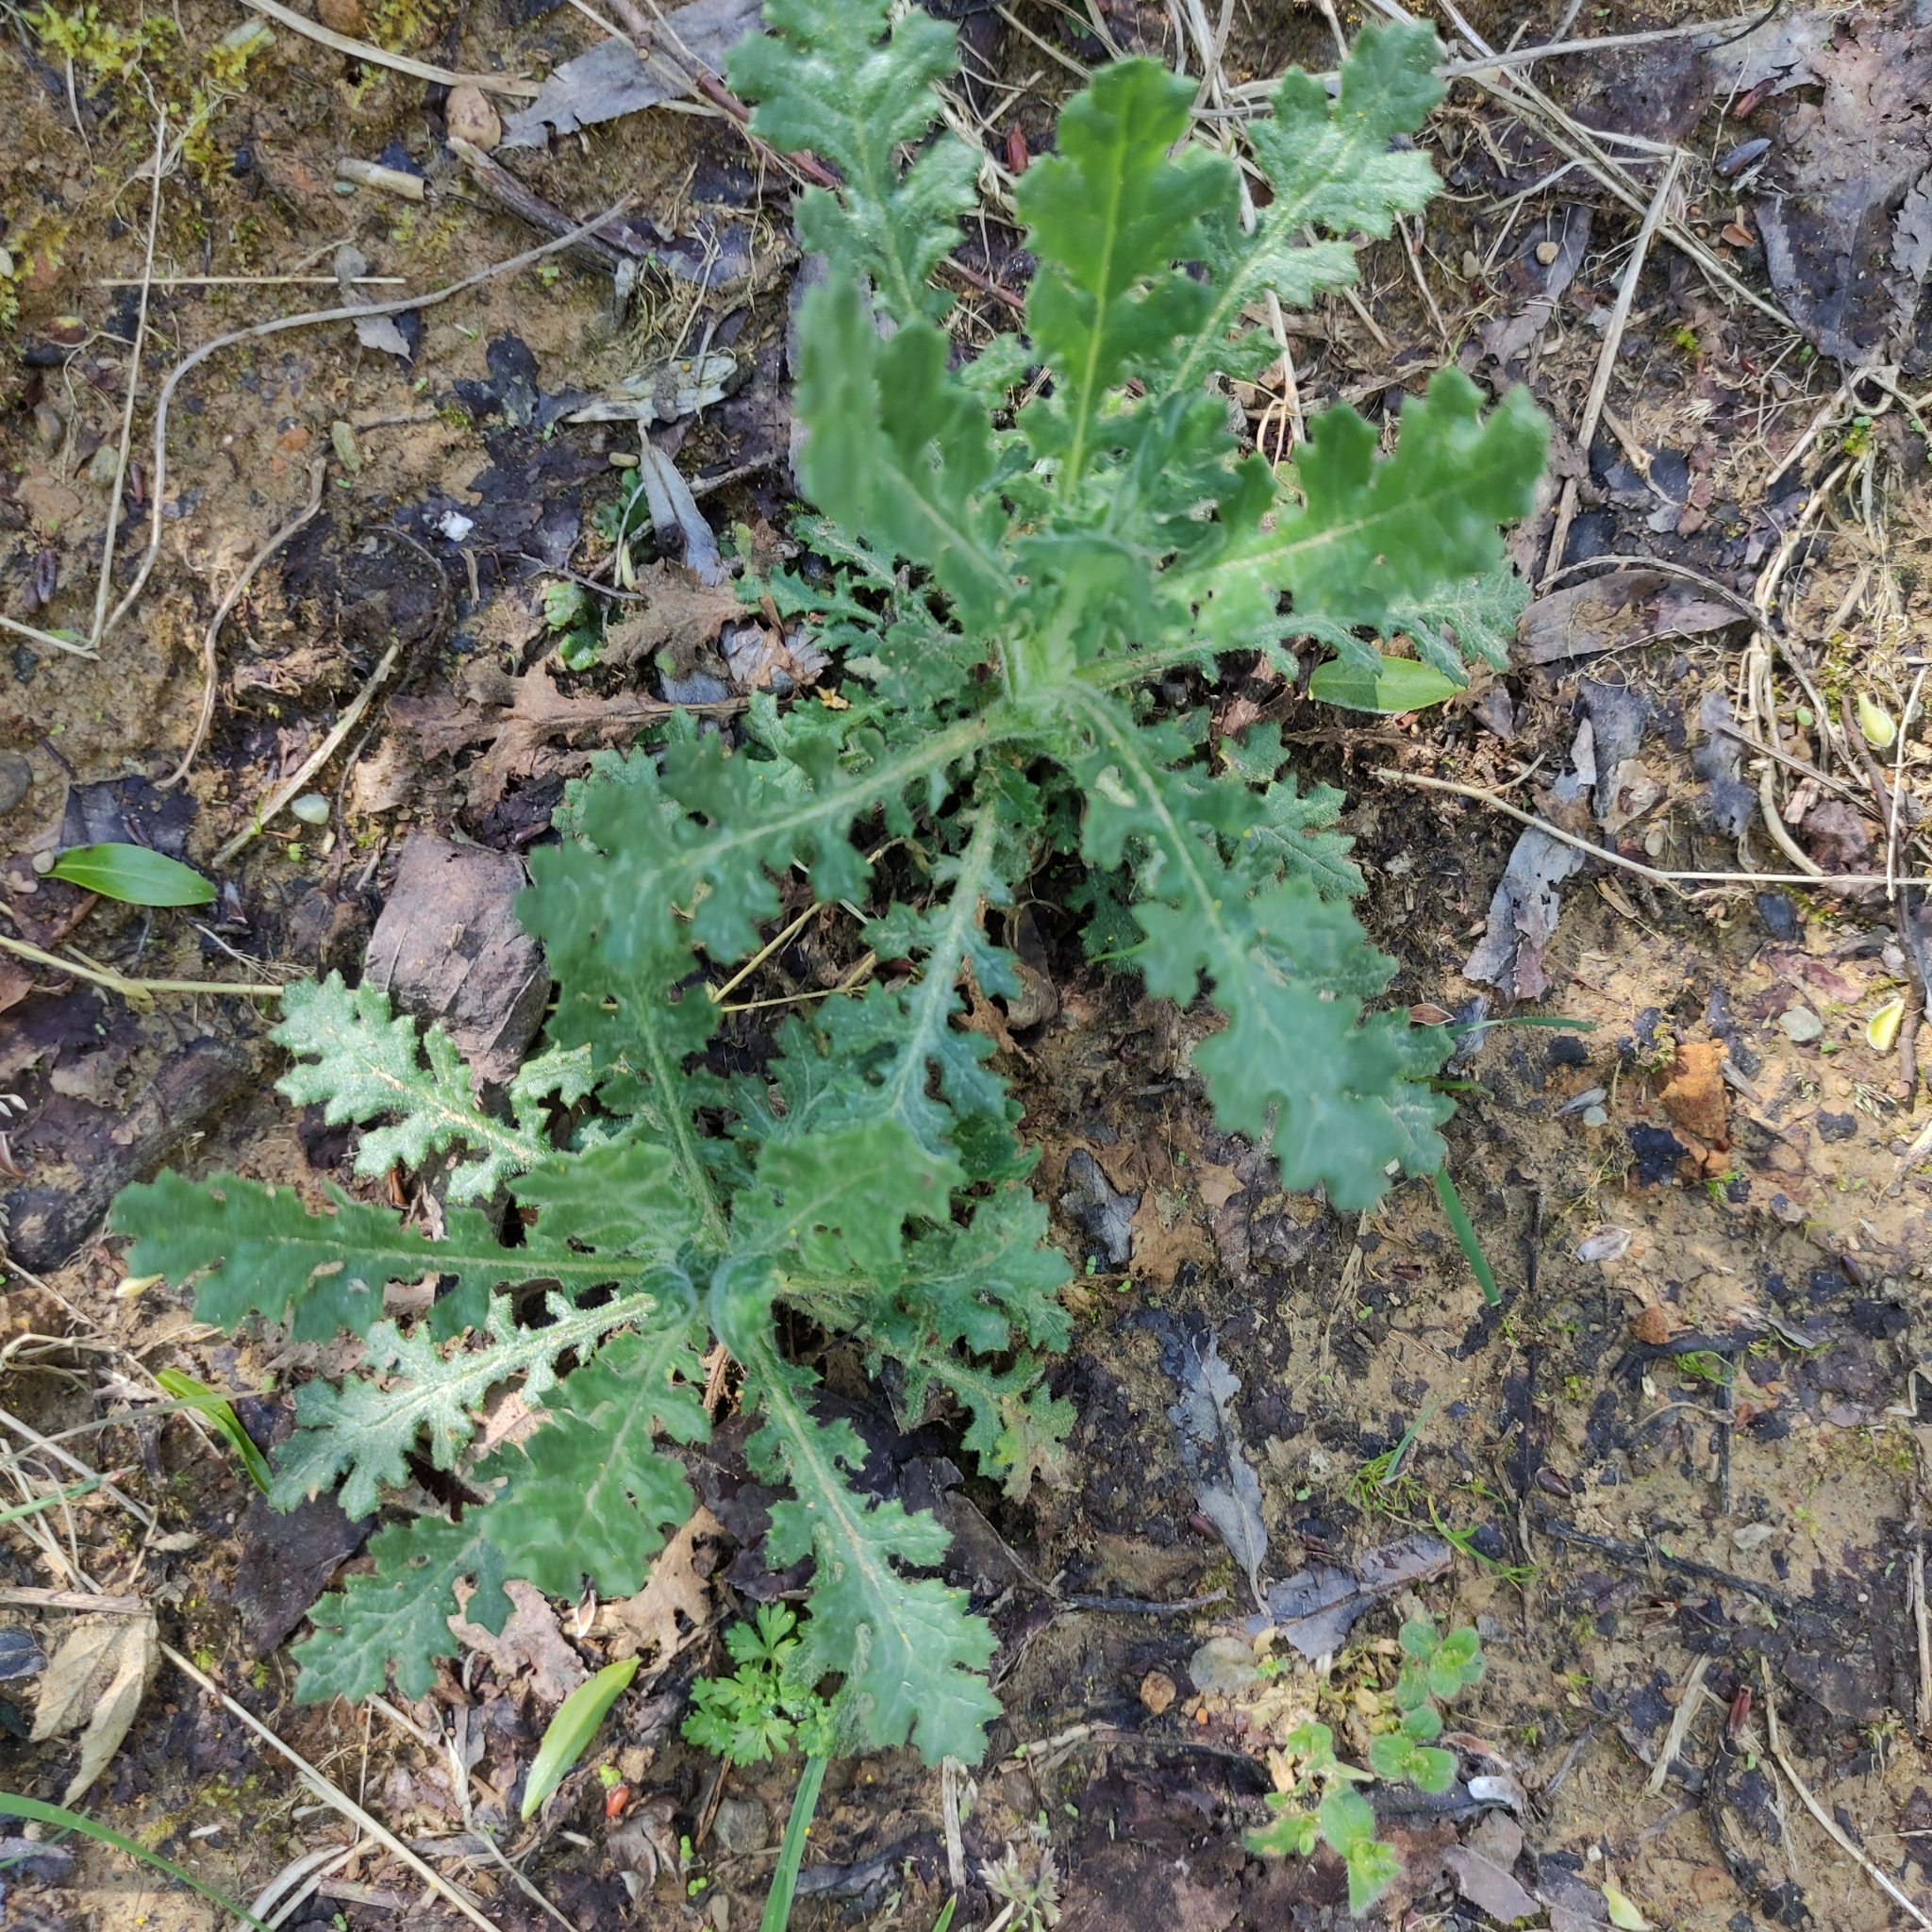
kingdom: Plantae
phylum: Tracheophyta
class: Magnoliopsida
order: Asterales
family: Asteraceae
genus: Senecio
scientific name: Senecio sylvaticus
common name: Woodland ragwort
